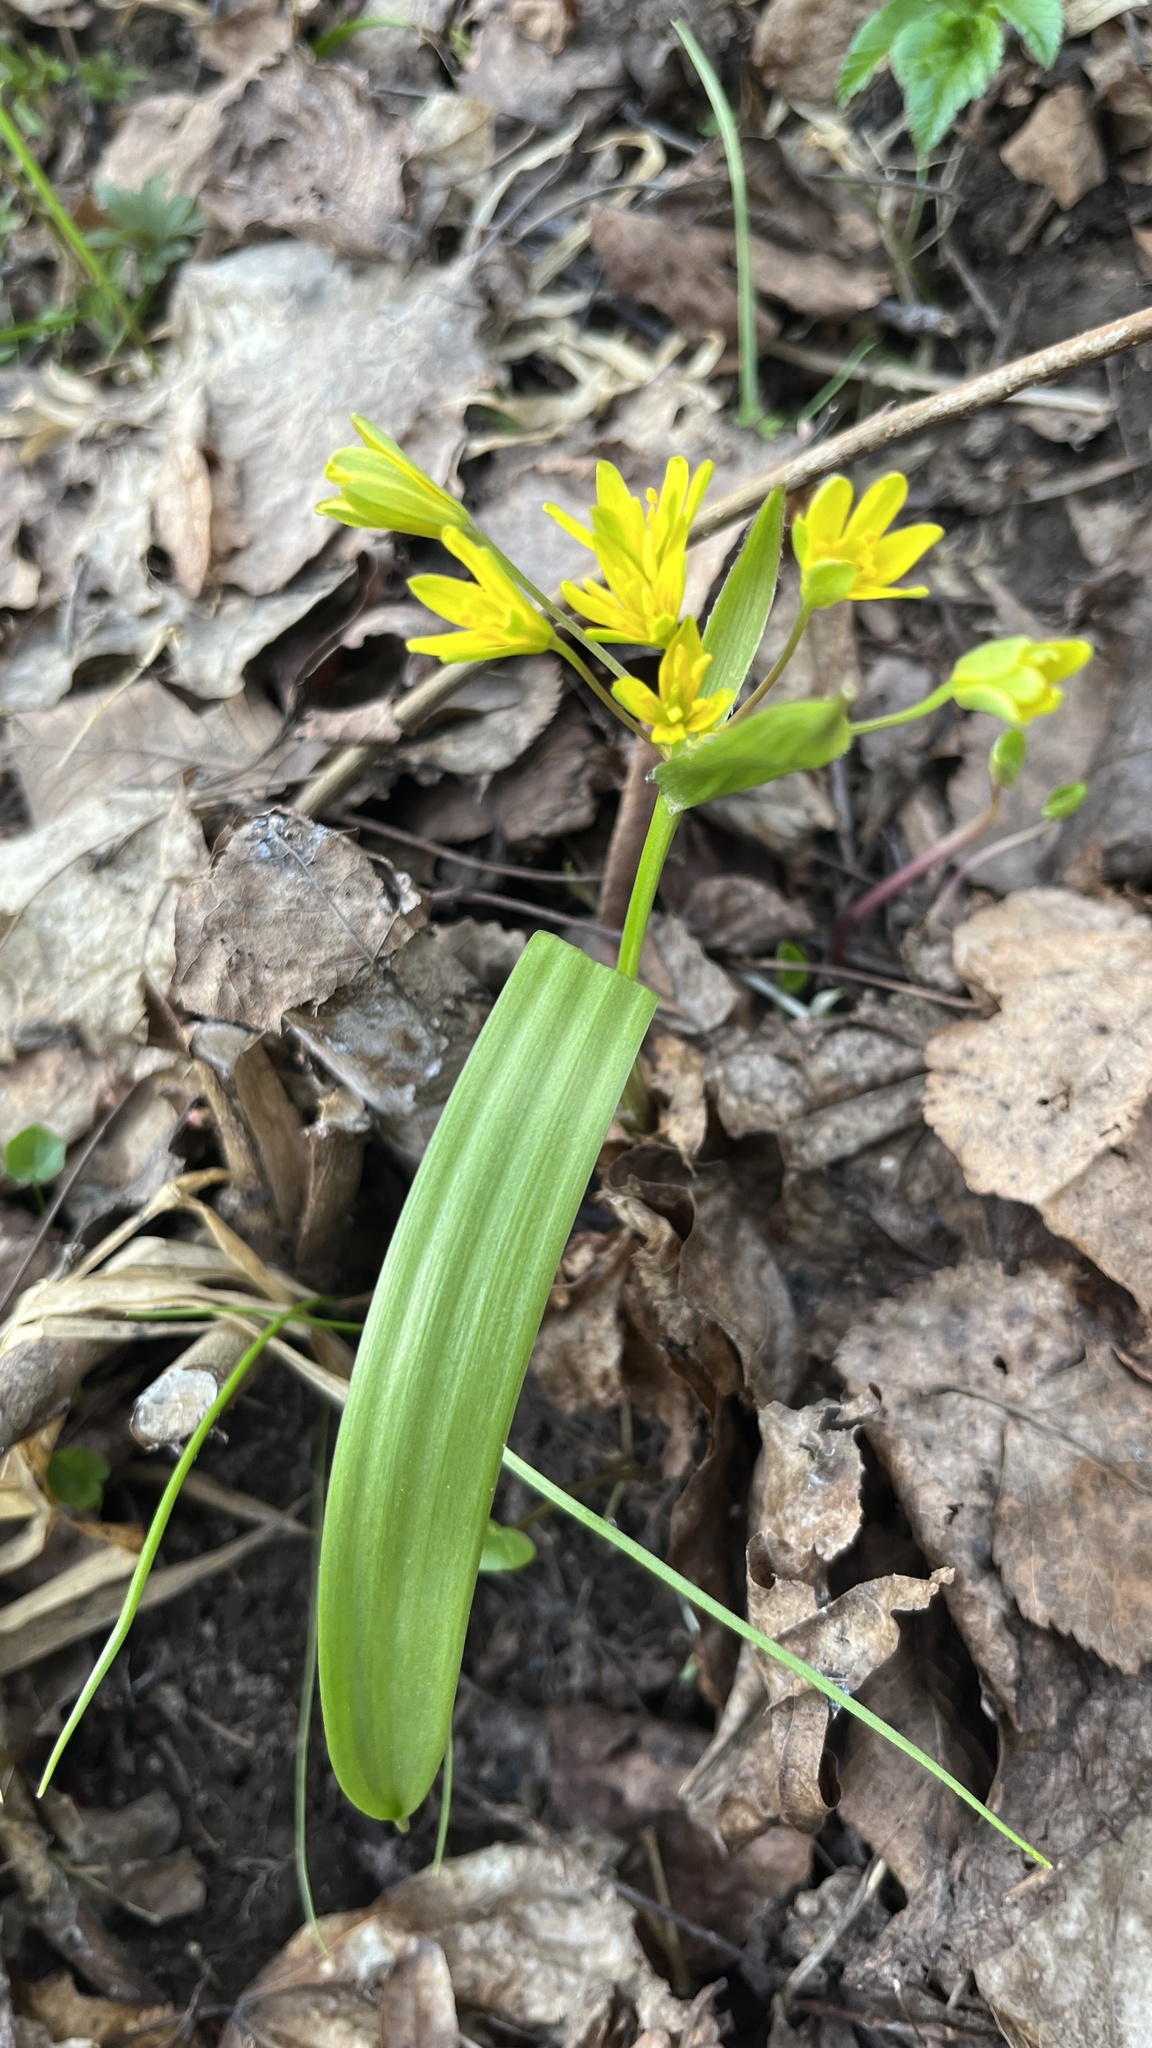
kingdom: Plantae
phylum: Tracheophyta
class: Liliopsida
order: Liliales
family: Liliaceae
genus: Gagea
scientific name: Gagea lutea
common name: Yellow star-of-bethlehem
